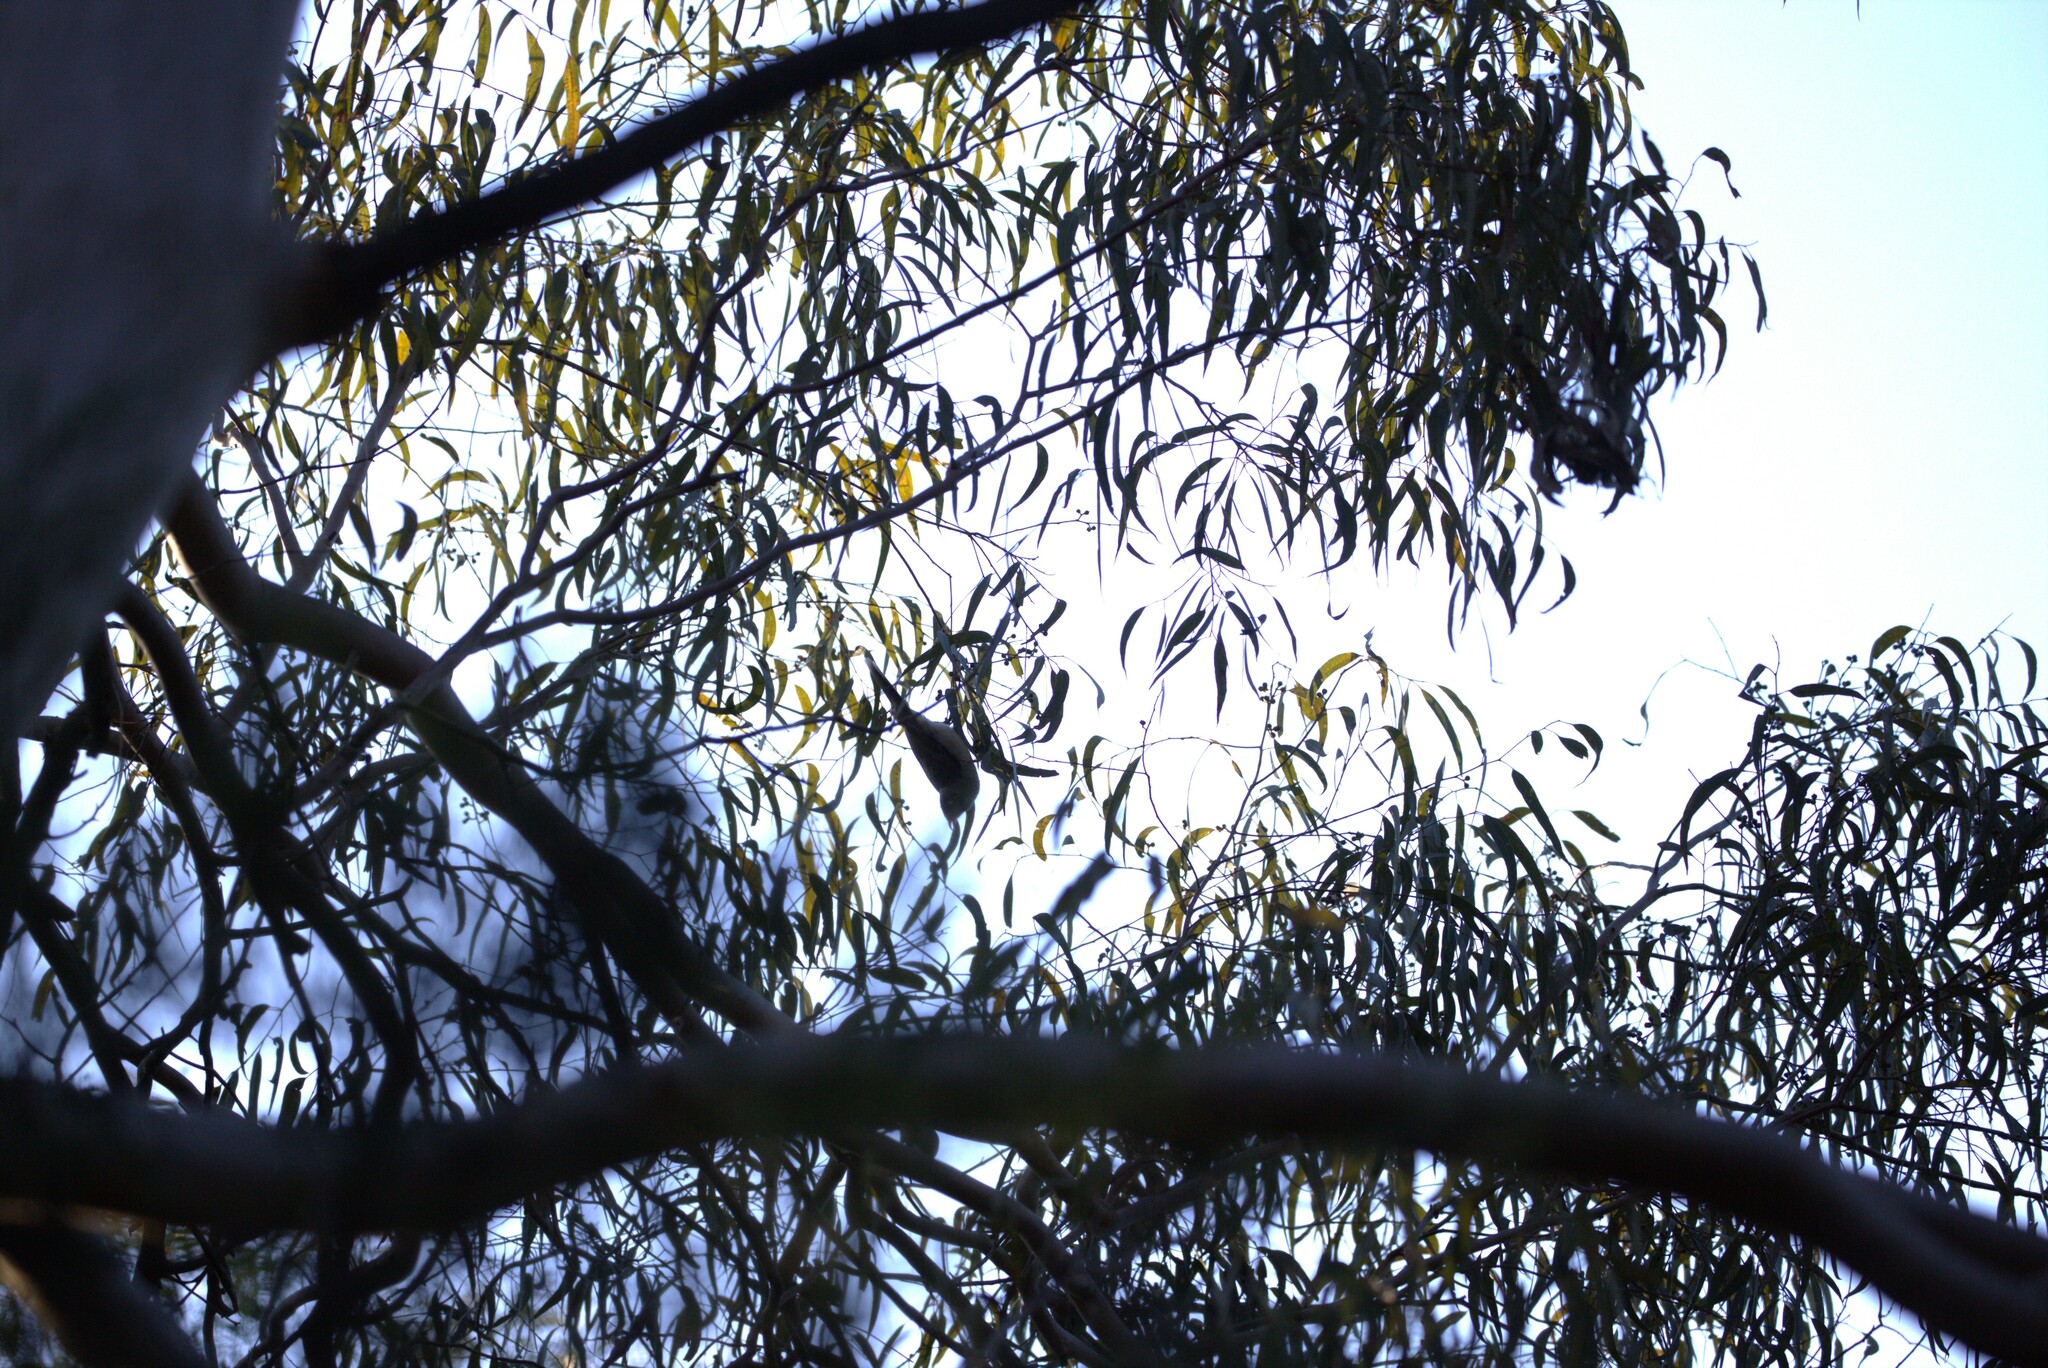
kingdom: Animalia
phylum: Chordata
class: Aves
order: Passeriformes
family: Meliphagidae
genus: Manorina
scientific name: Manorina melanocephala
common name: Noisy miner
